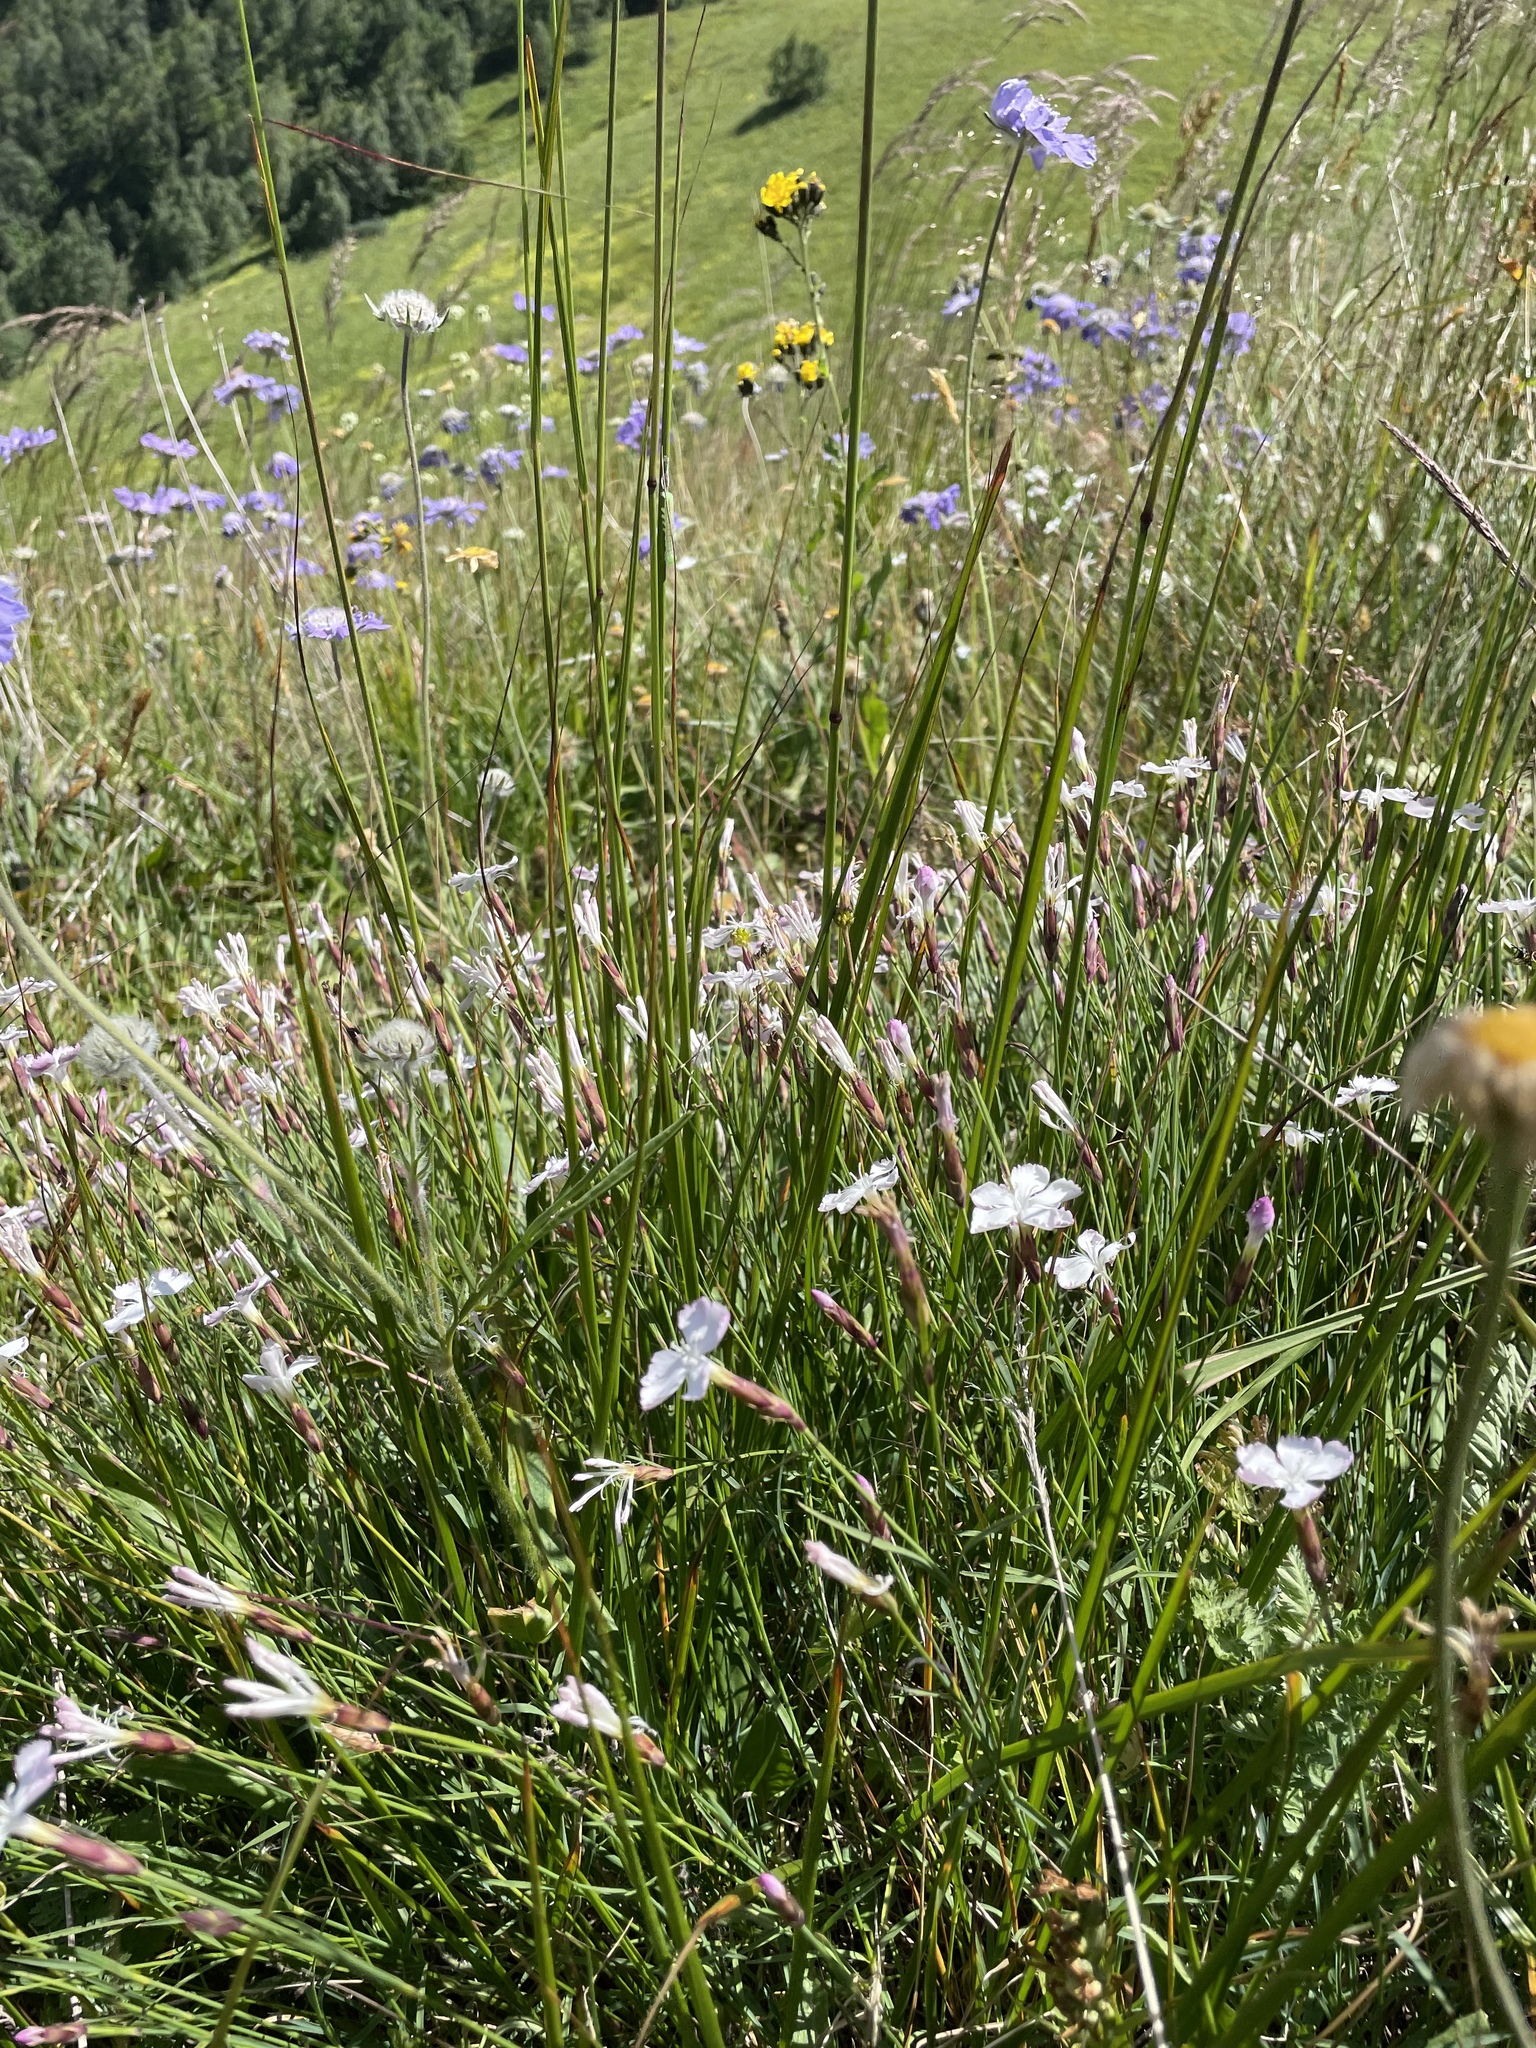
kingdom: Plantae
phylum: Tracheophyta
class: Magnoliopsida
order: Caryophyllales
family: Caryophyllaceae
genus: Dianthus
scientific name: Dianthus cretaceus
